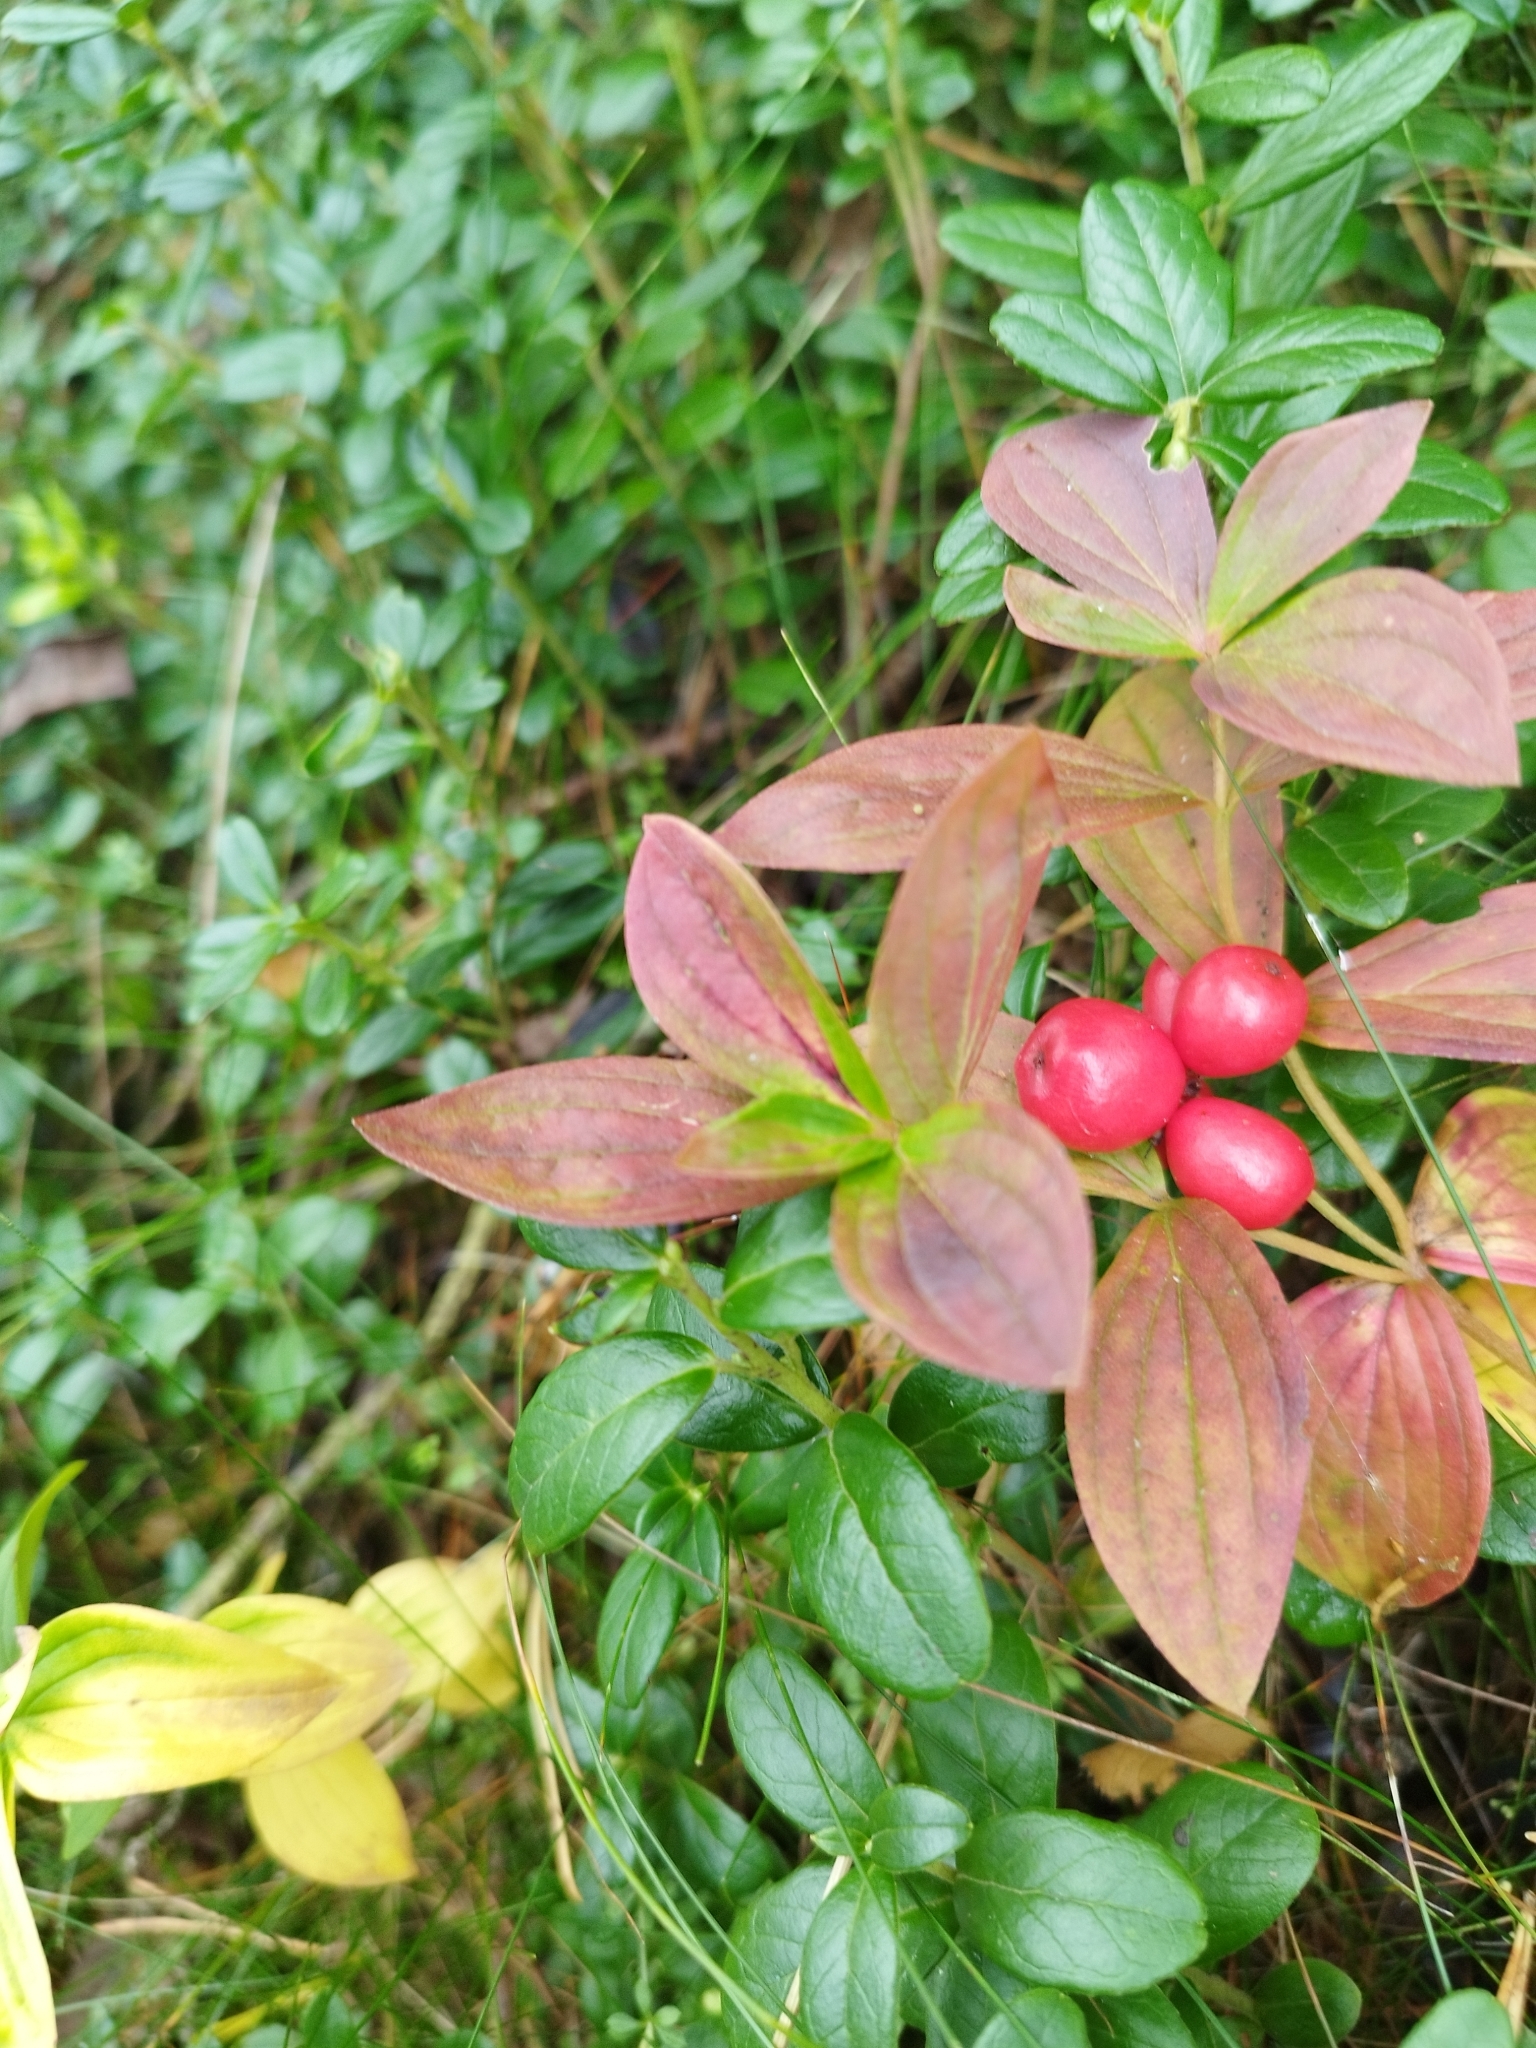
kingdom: Plantae
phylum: Tracheophyta
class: Magnoliopsida
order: Cornales
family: Cornaceae
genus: Cornus
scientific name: Cornus suecica
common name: Dwarf cornel
